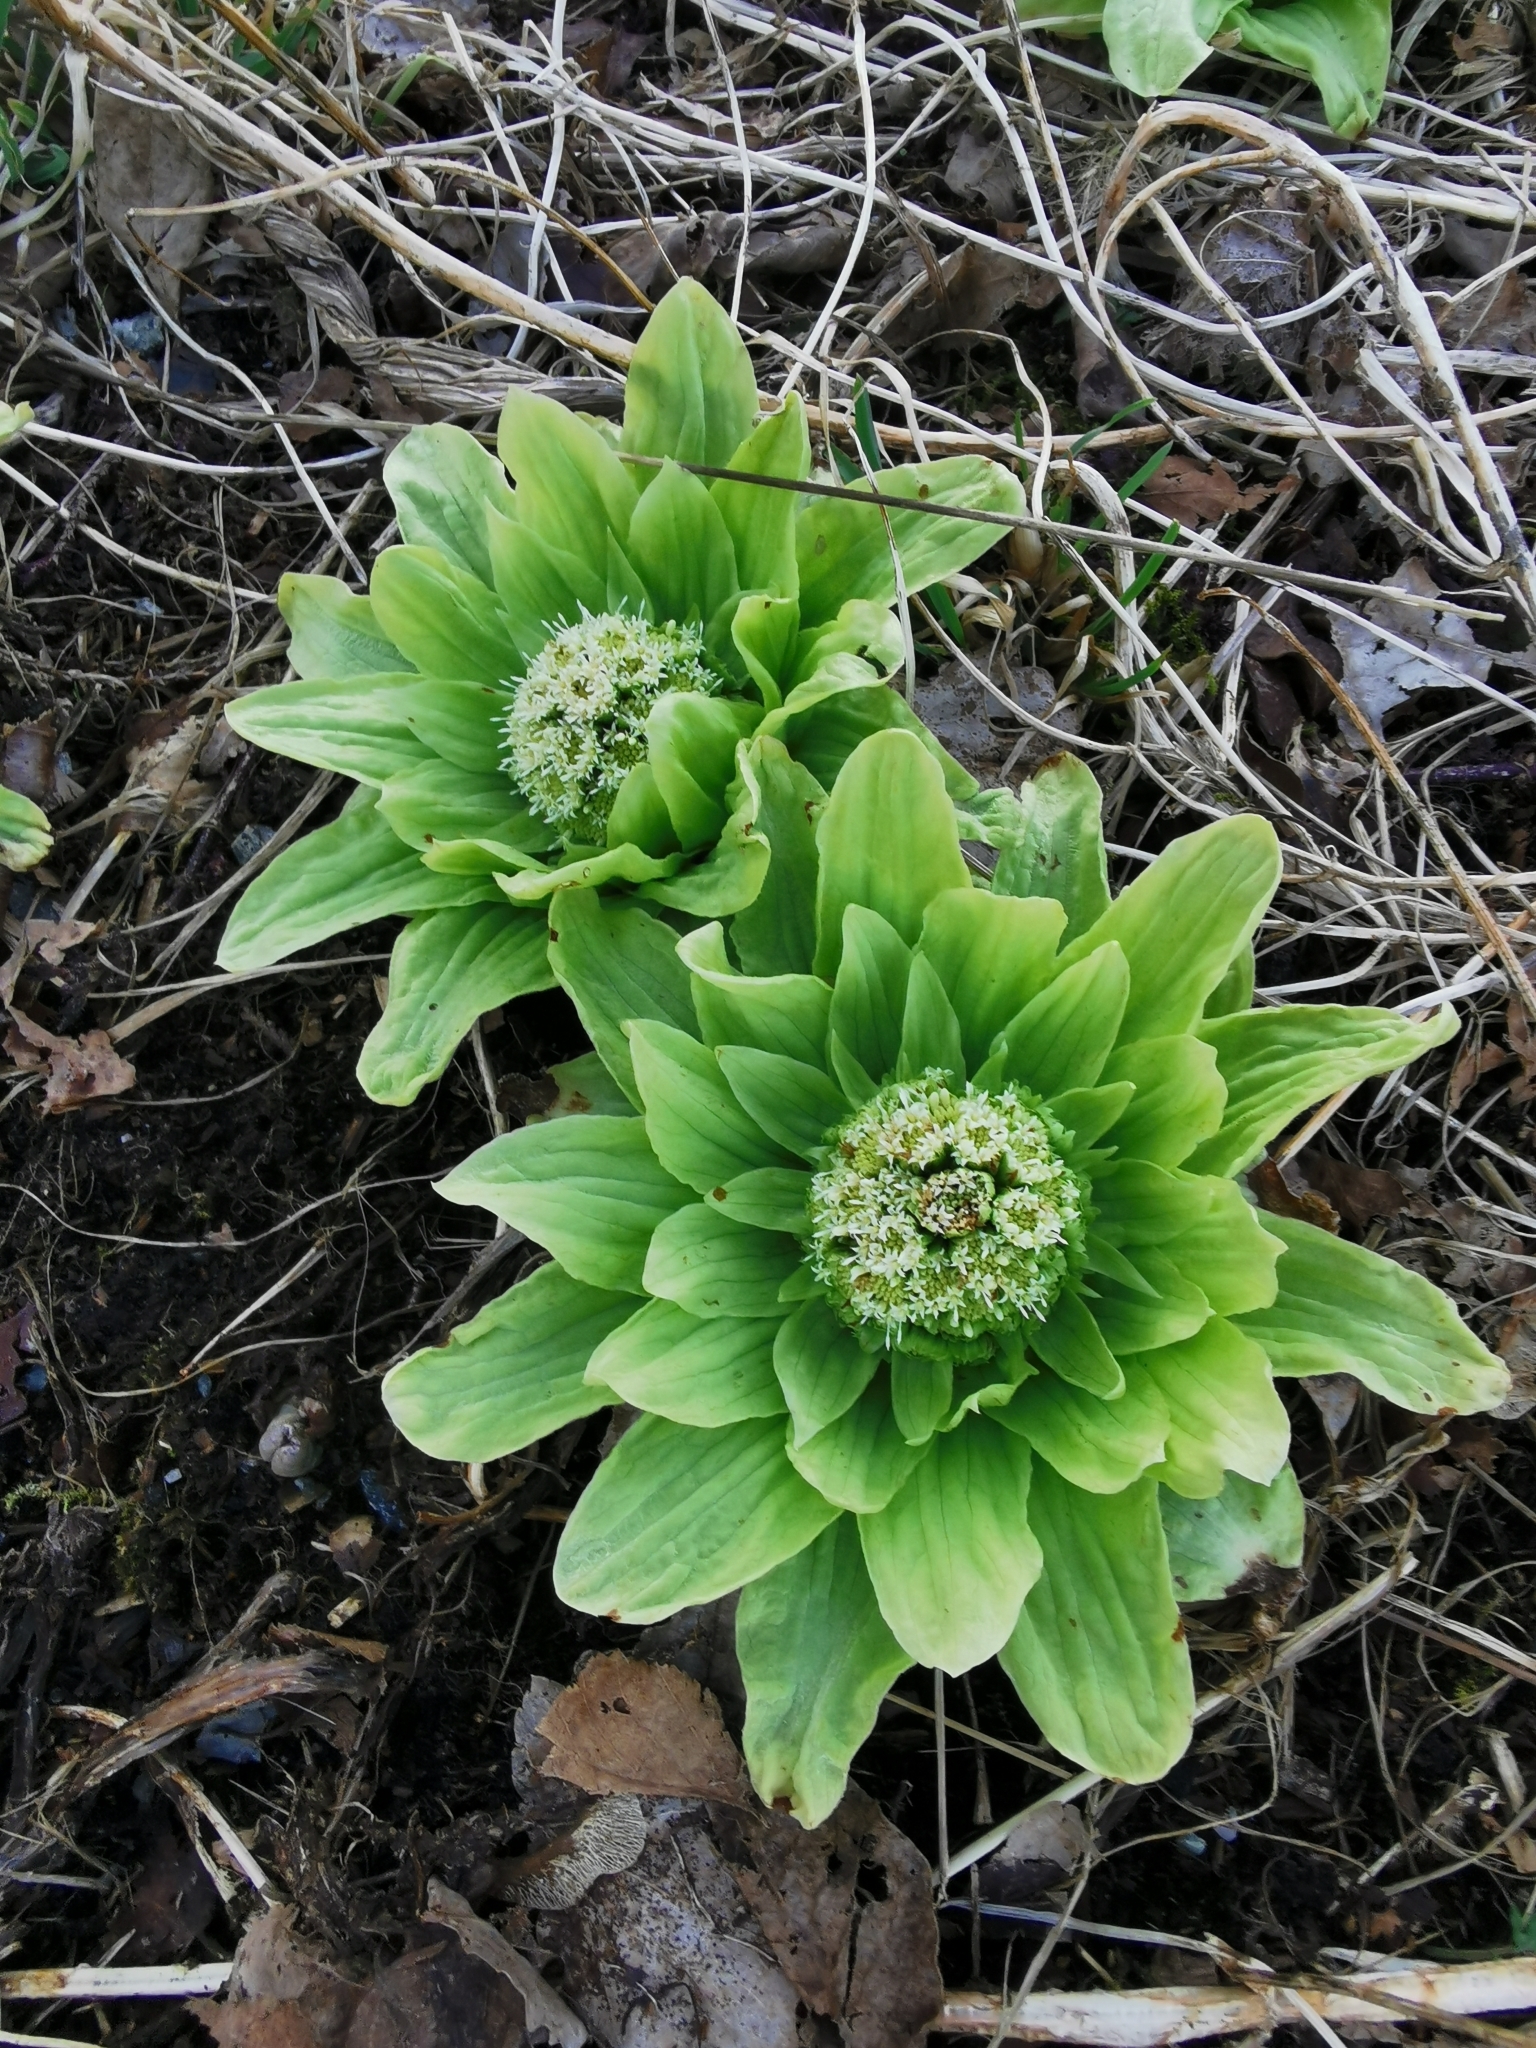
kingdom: Plantae
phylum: Tracheophyta
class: Magnoliopsida
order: Asterales
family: Asteraceae
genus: Petasites
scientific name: Petasites albus
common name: White butterbur
